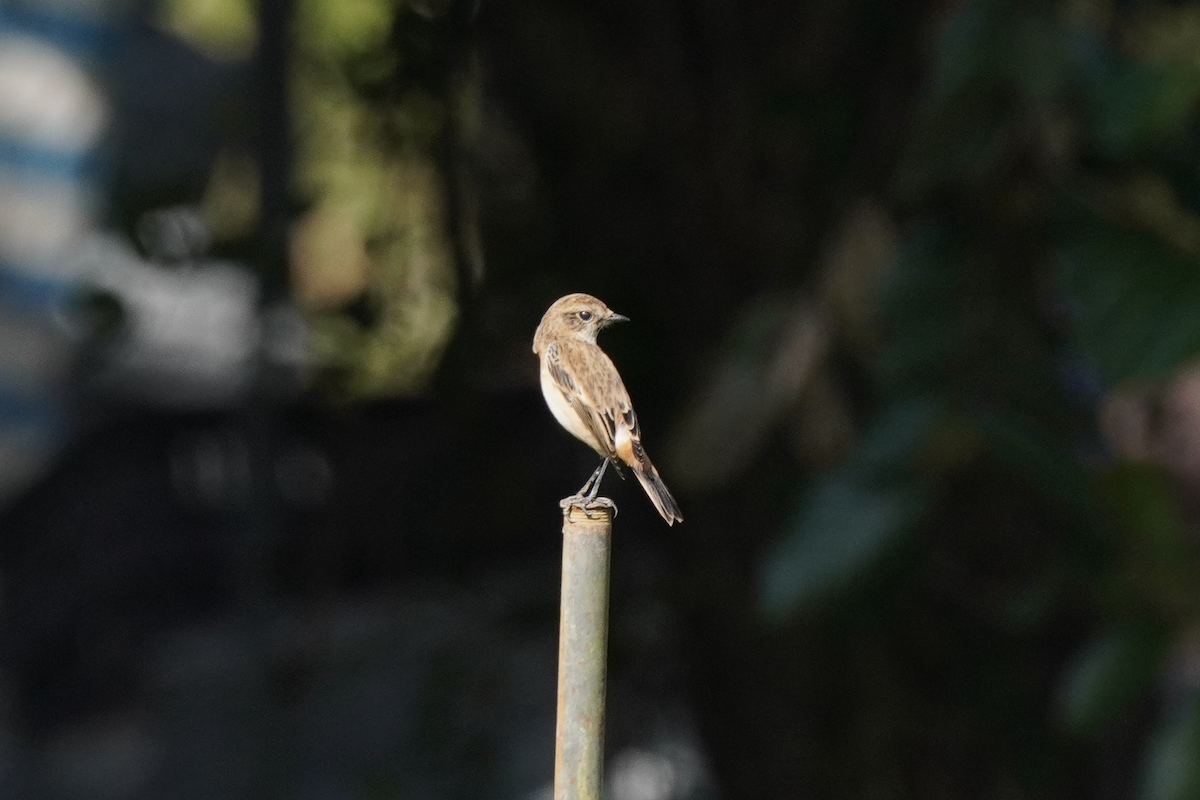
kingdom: Animalia
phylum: Chordata
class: Aves
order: Passeriformes
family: Muscicapidae
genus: Saxicola
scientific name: Saxicola stejnegeri
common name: Stejneger's stonechat
